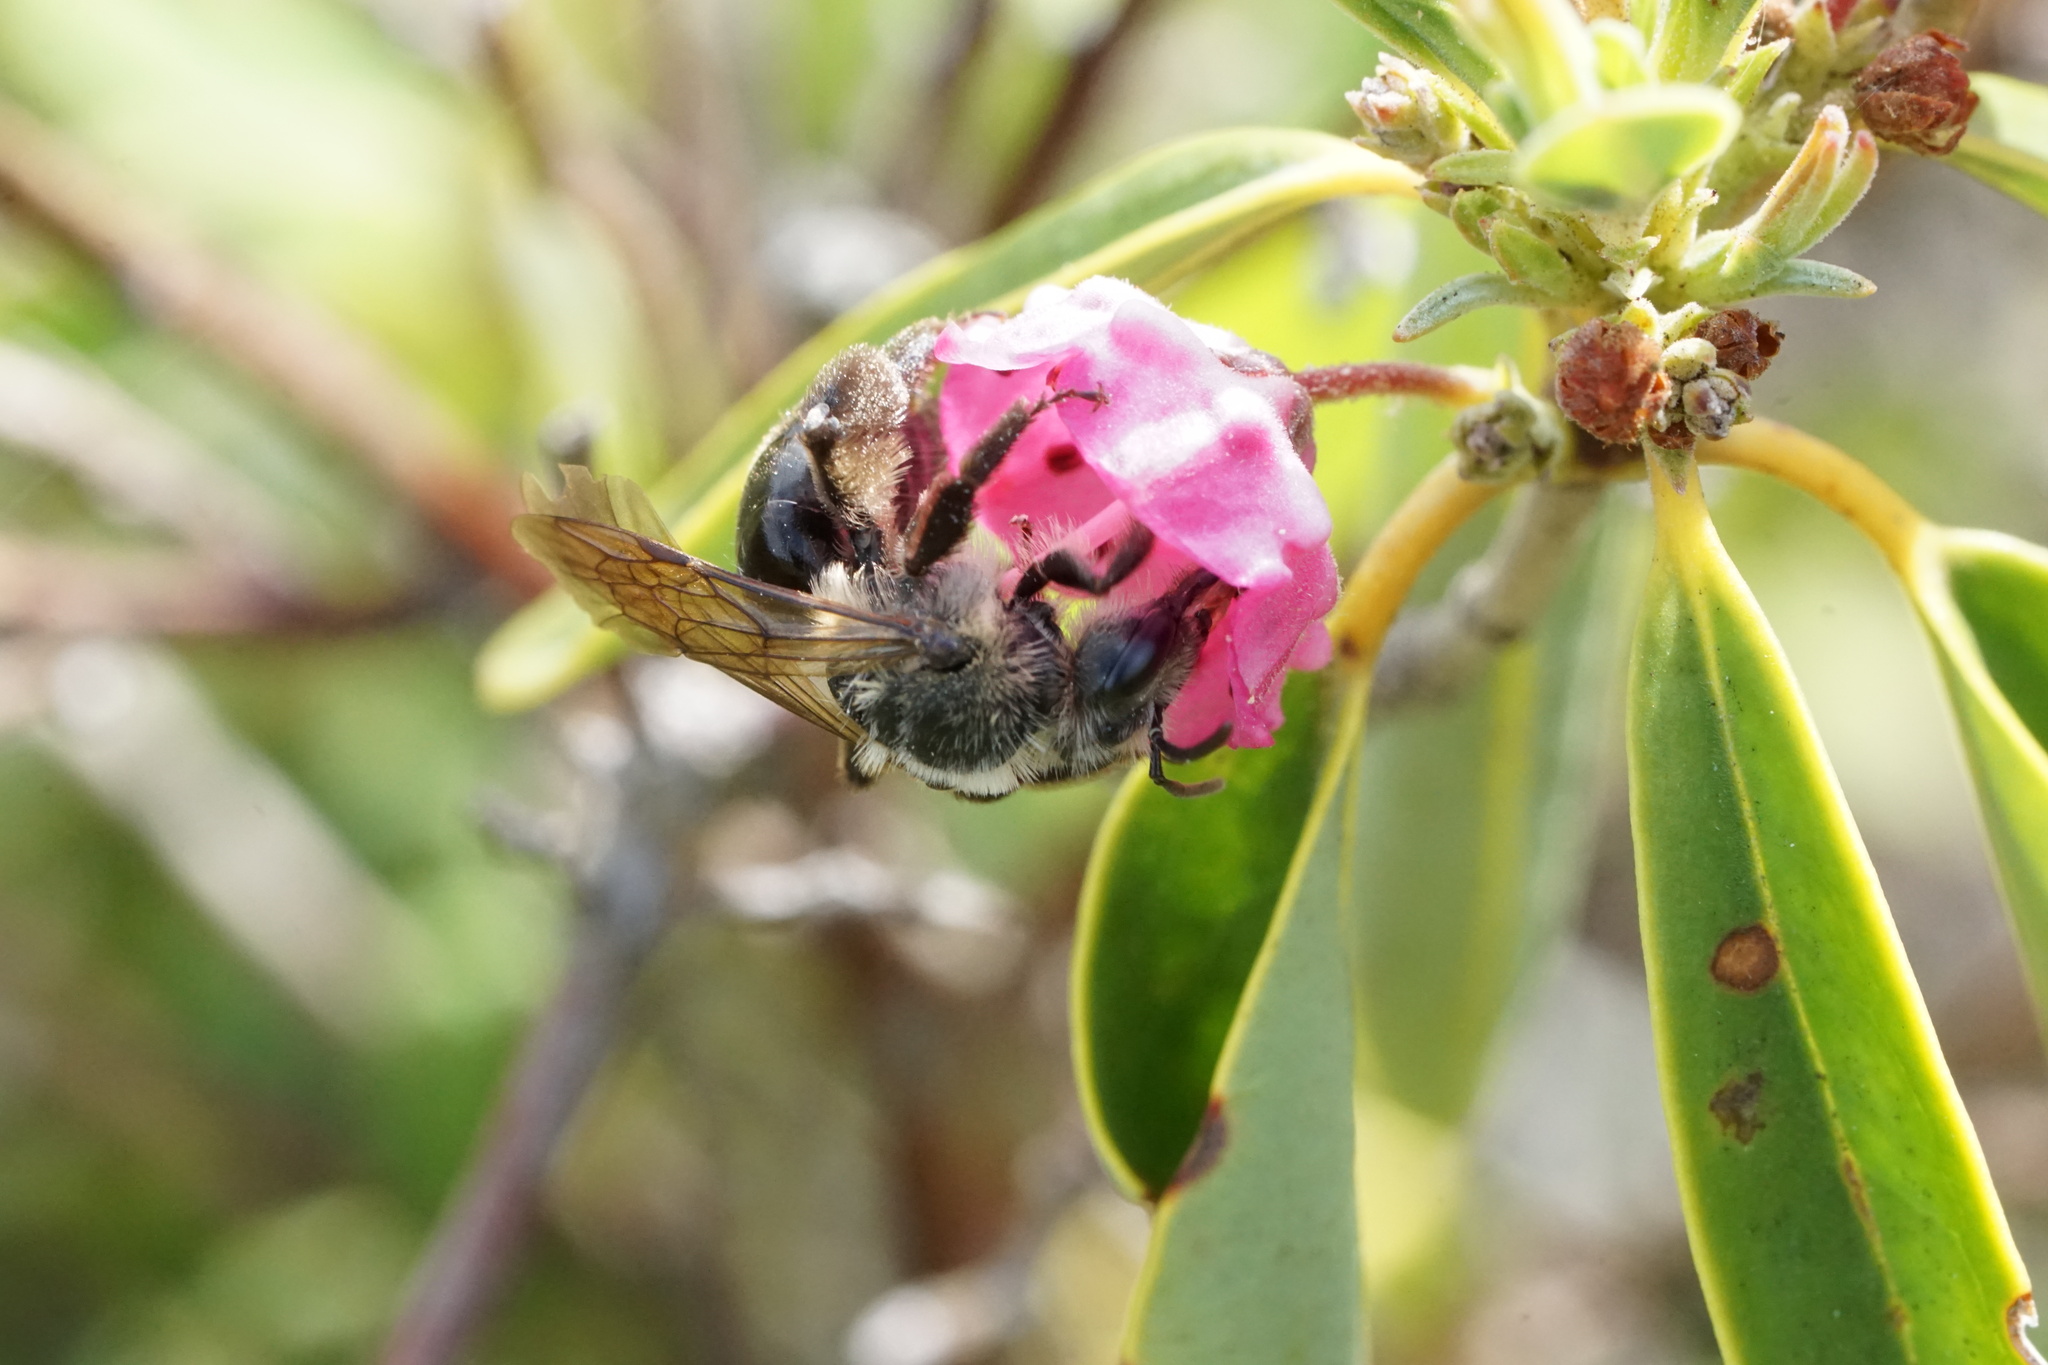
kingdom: Animalia
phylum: Arthropoda
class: Insecta
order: Hymenoptera
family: Andrenidae
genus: Andrena
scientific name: Andrena vicina
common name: Neighborly mining bee
